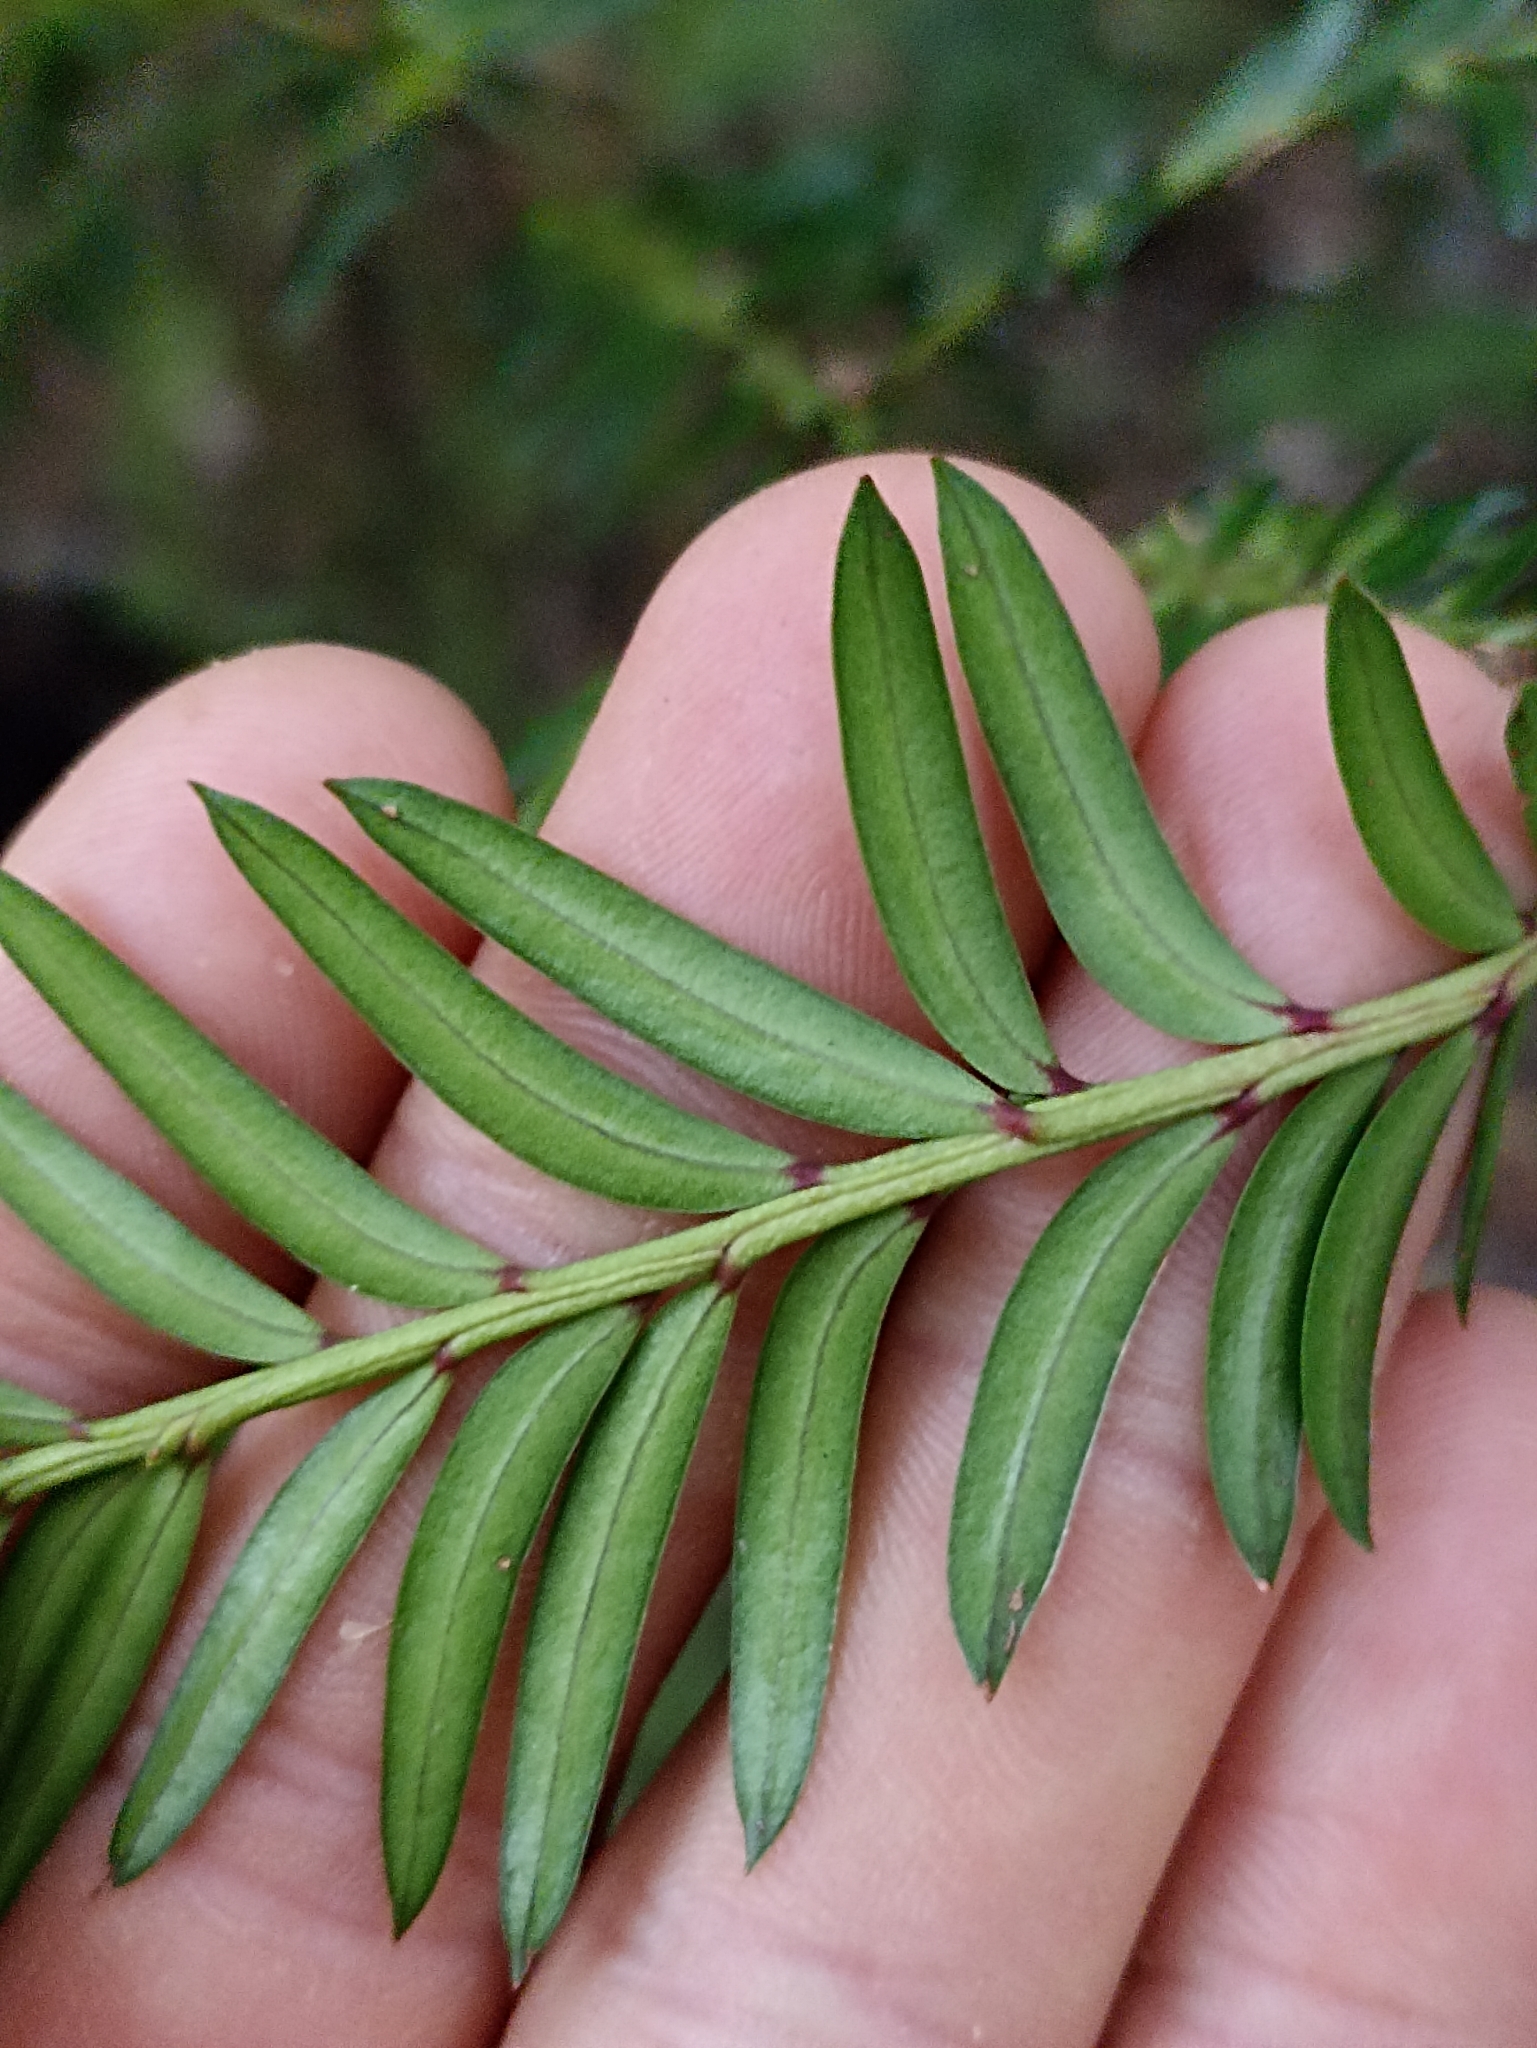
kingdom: Plantae
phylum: Tracheophyta
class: Pinopsida
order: Pinales
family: Podocarpaceae
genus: Prumnopitys
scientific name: Prumnopitys ferruginea
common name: Brown pine
